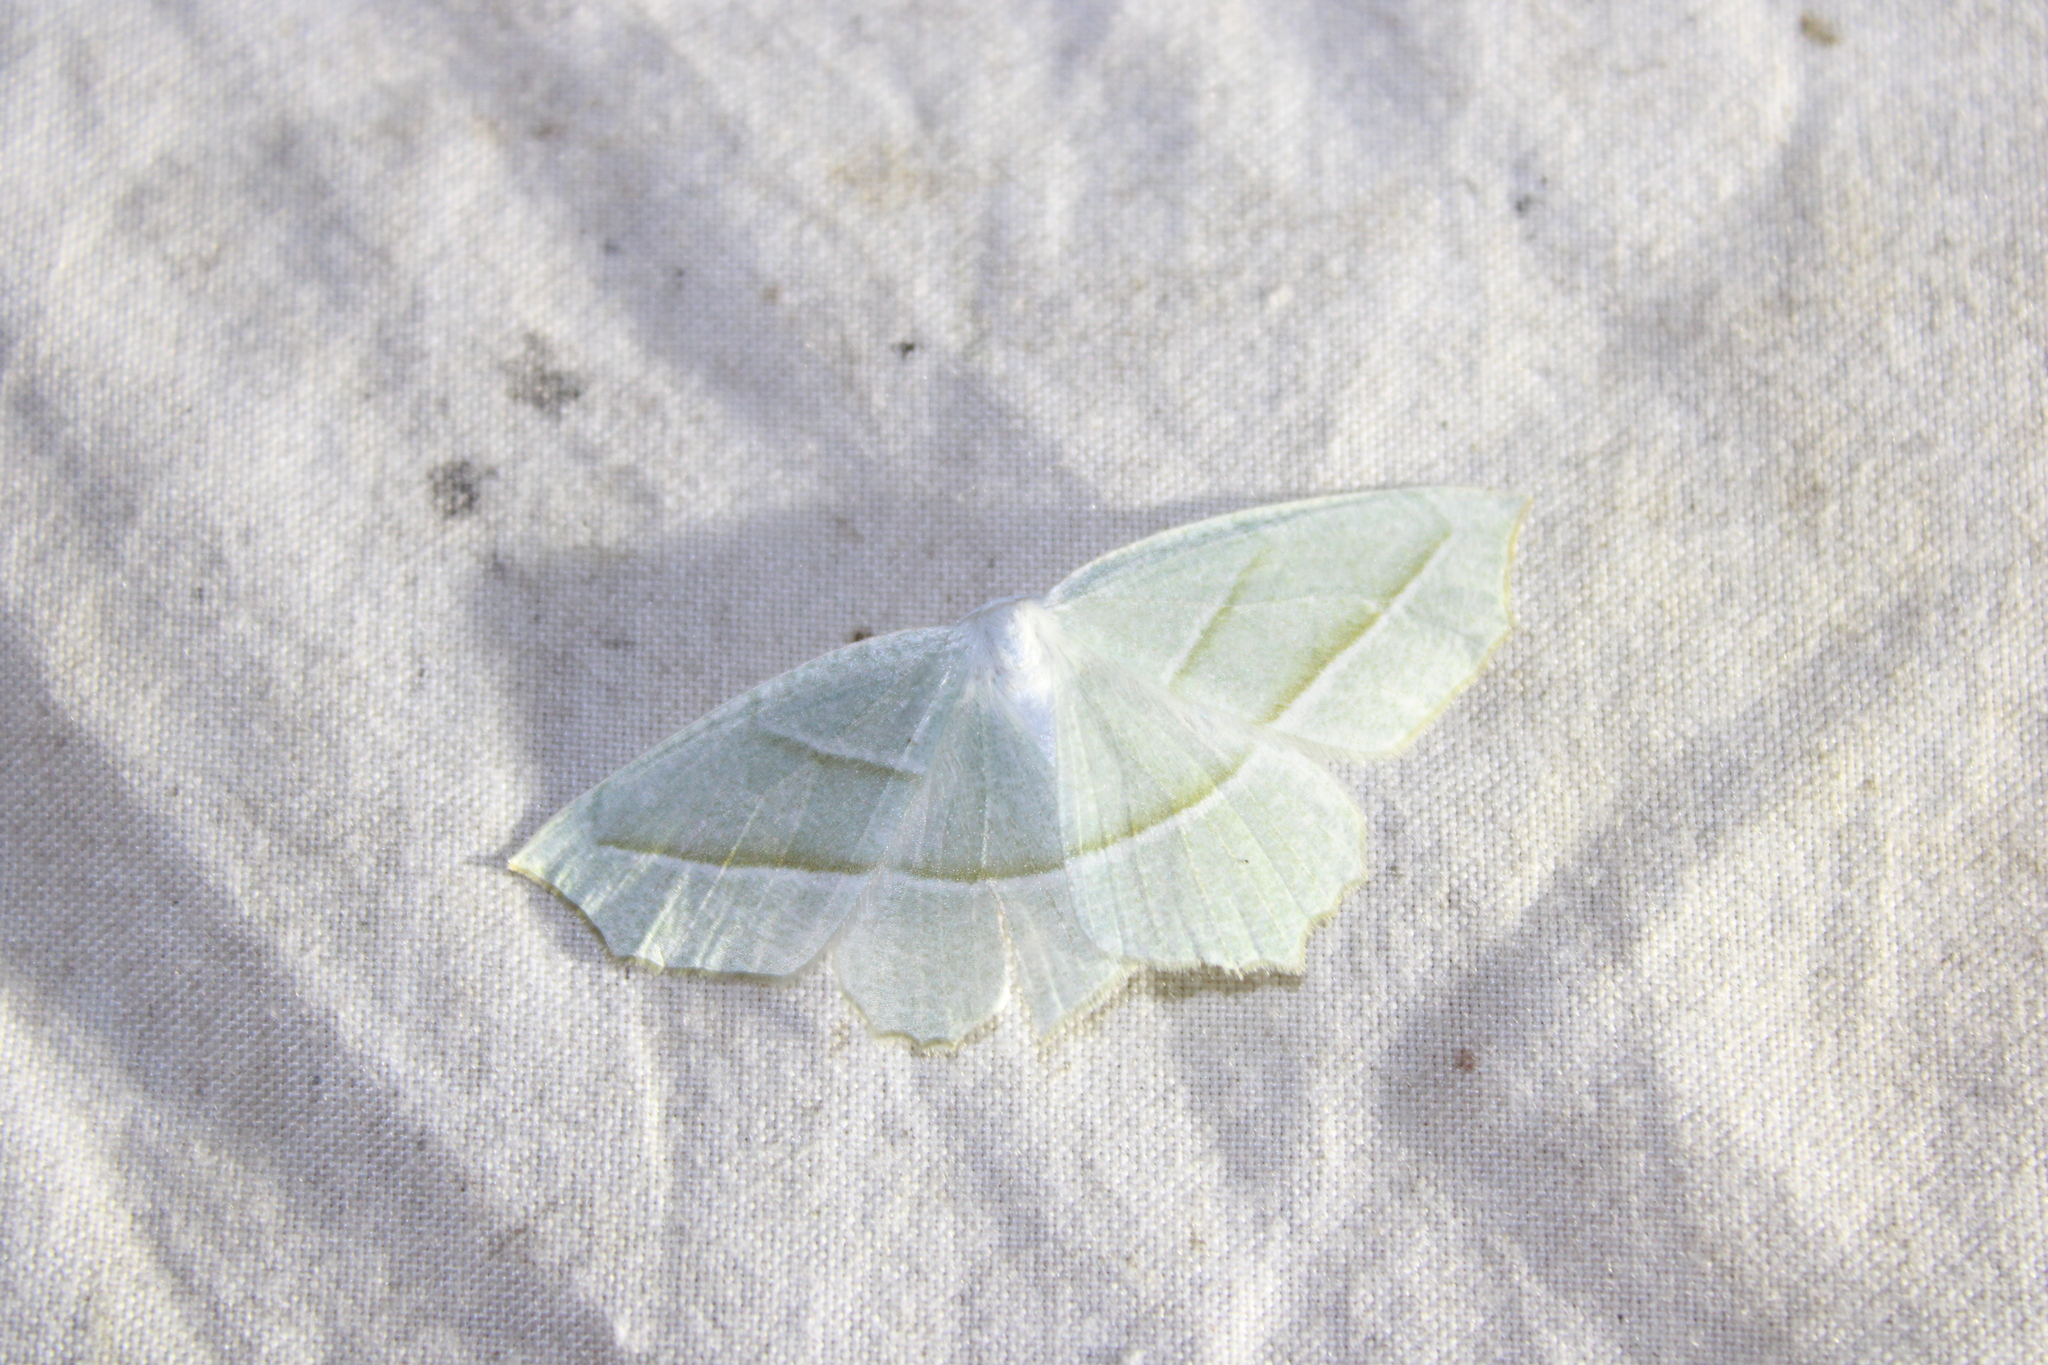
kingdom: Animalia
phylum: Arthropoda
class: Insecta
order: Lepidoptera
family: Geometridae
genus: Campaea
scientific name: Campaea perlata
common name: Fringed looper
